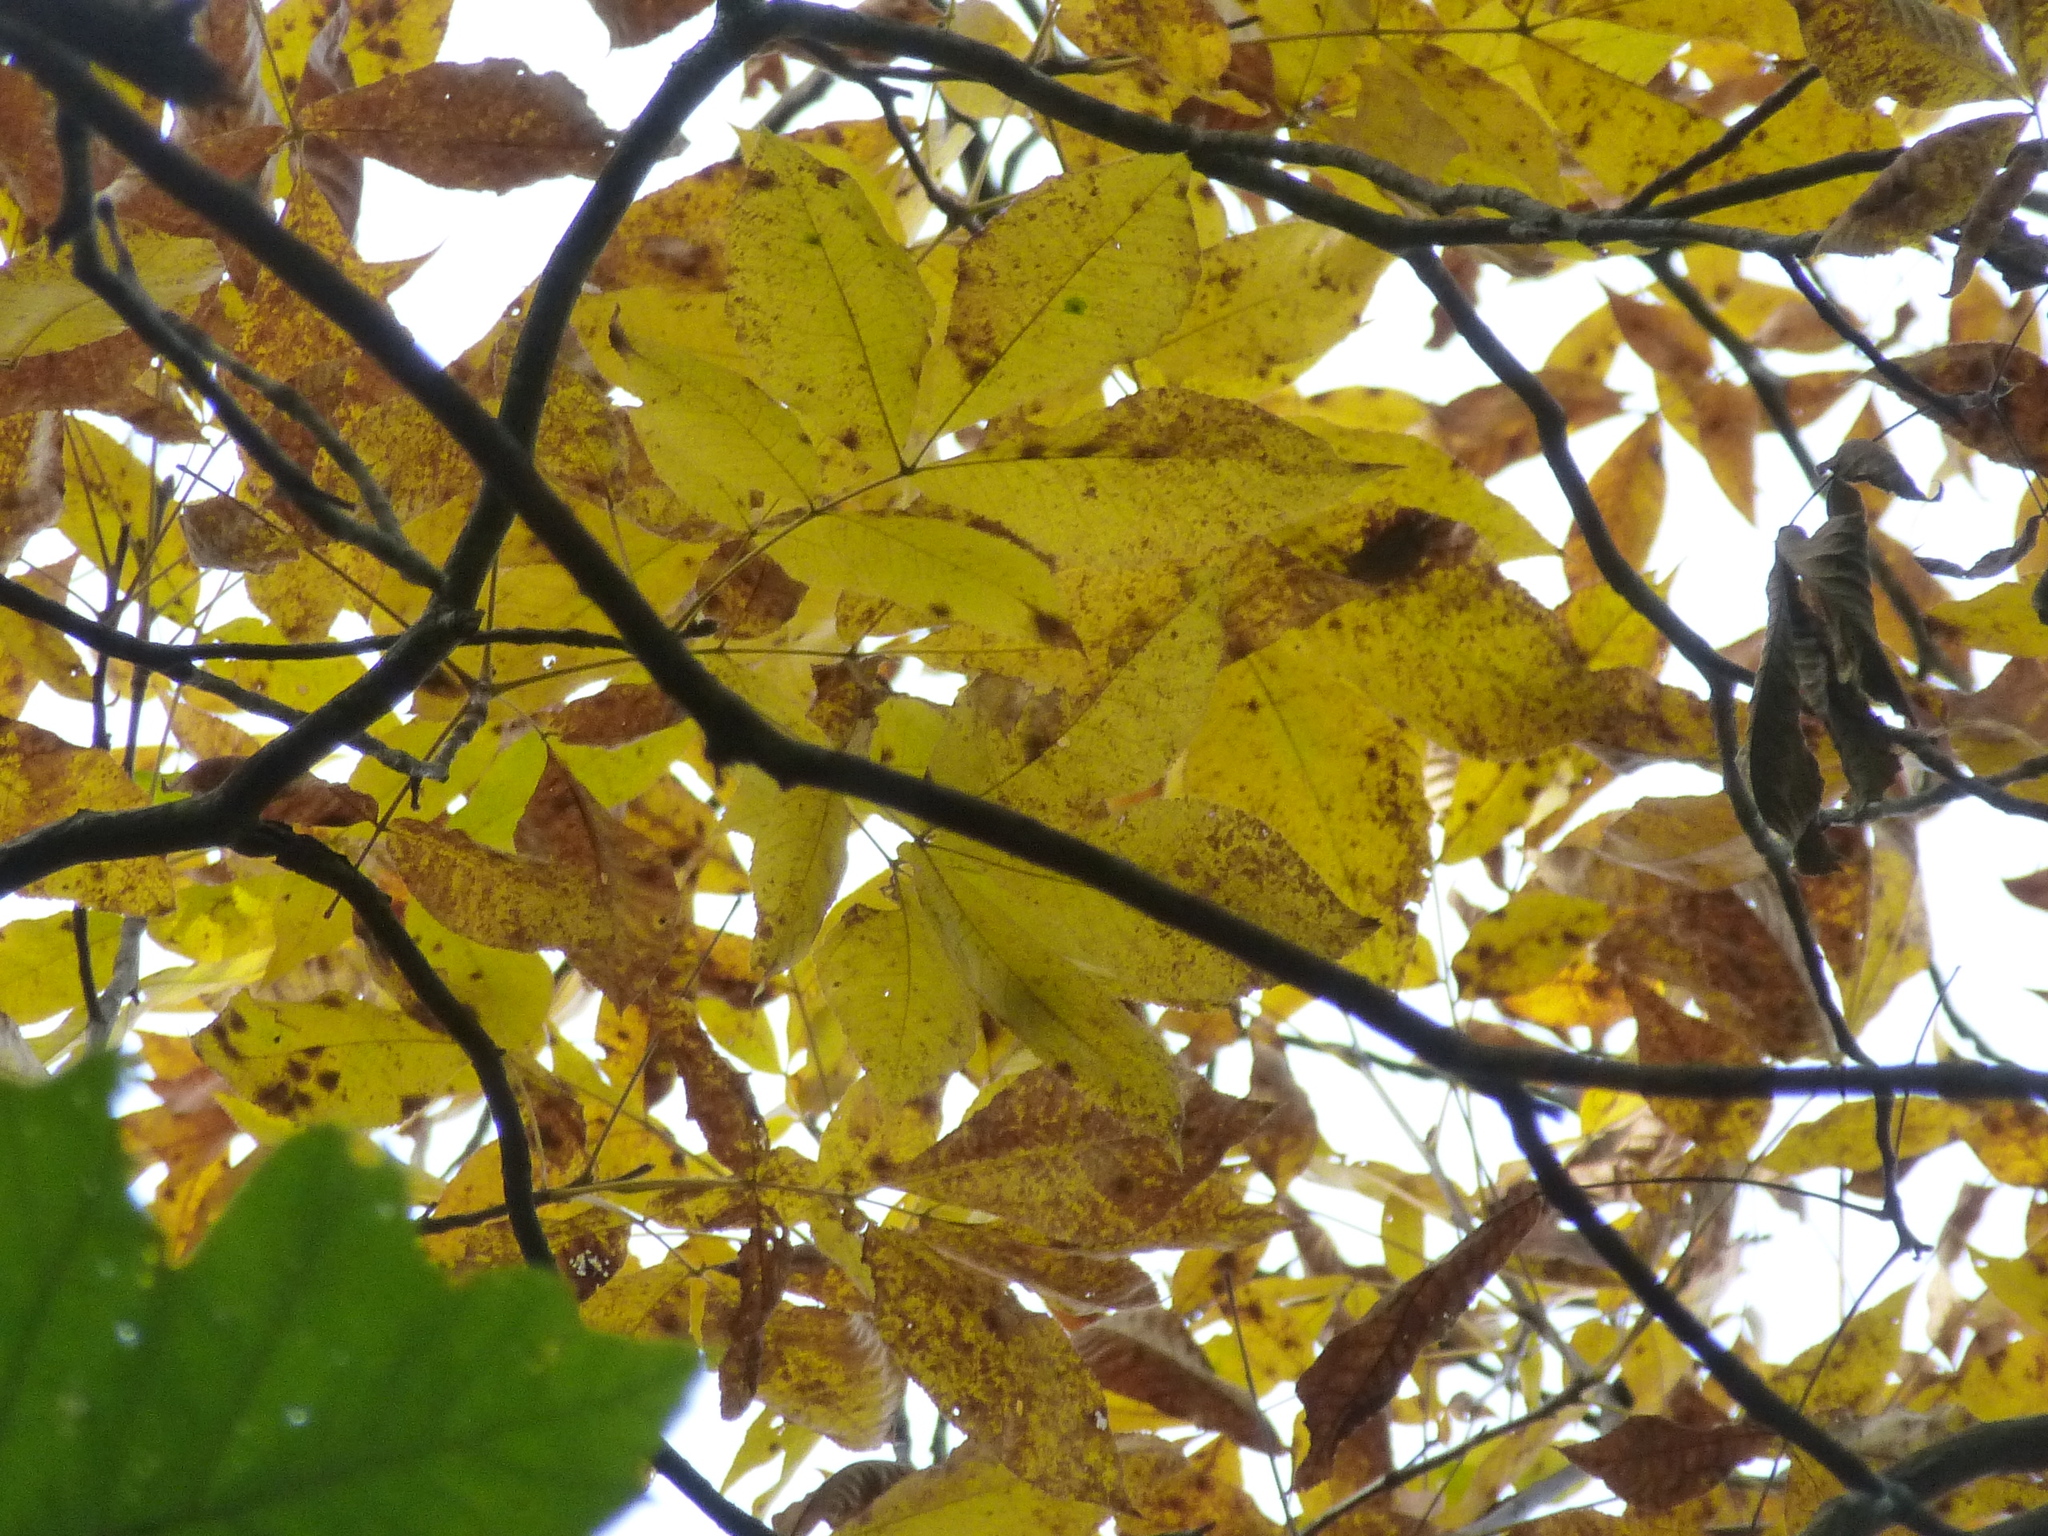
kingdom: Plantae
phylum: Tracheophyta
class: Magnoliopsida
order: Fagales
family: Juglandaceae
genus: Carya
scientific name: Carya ovata
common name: Shagbark hickory
